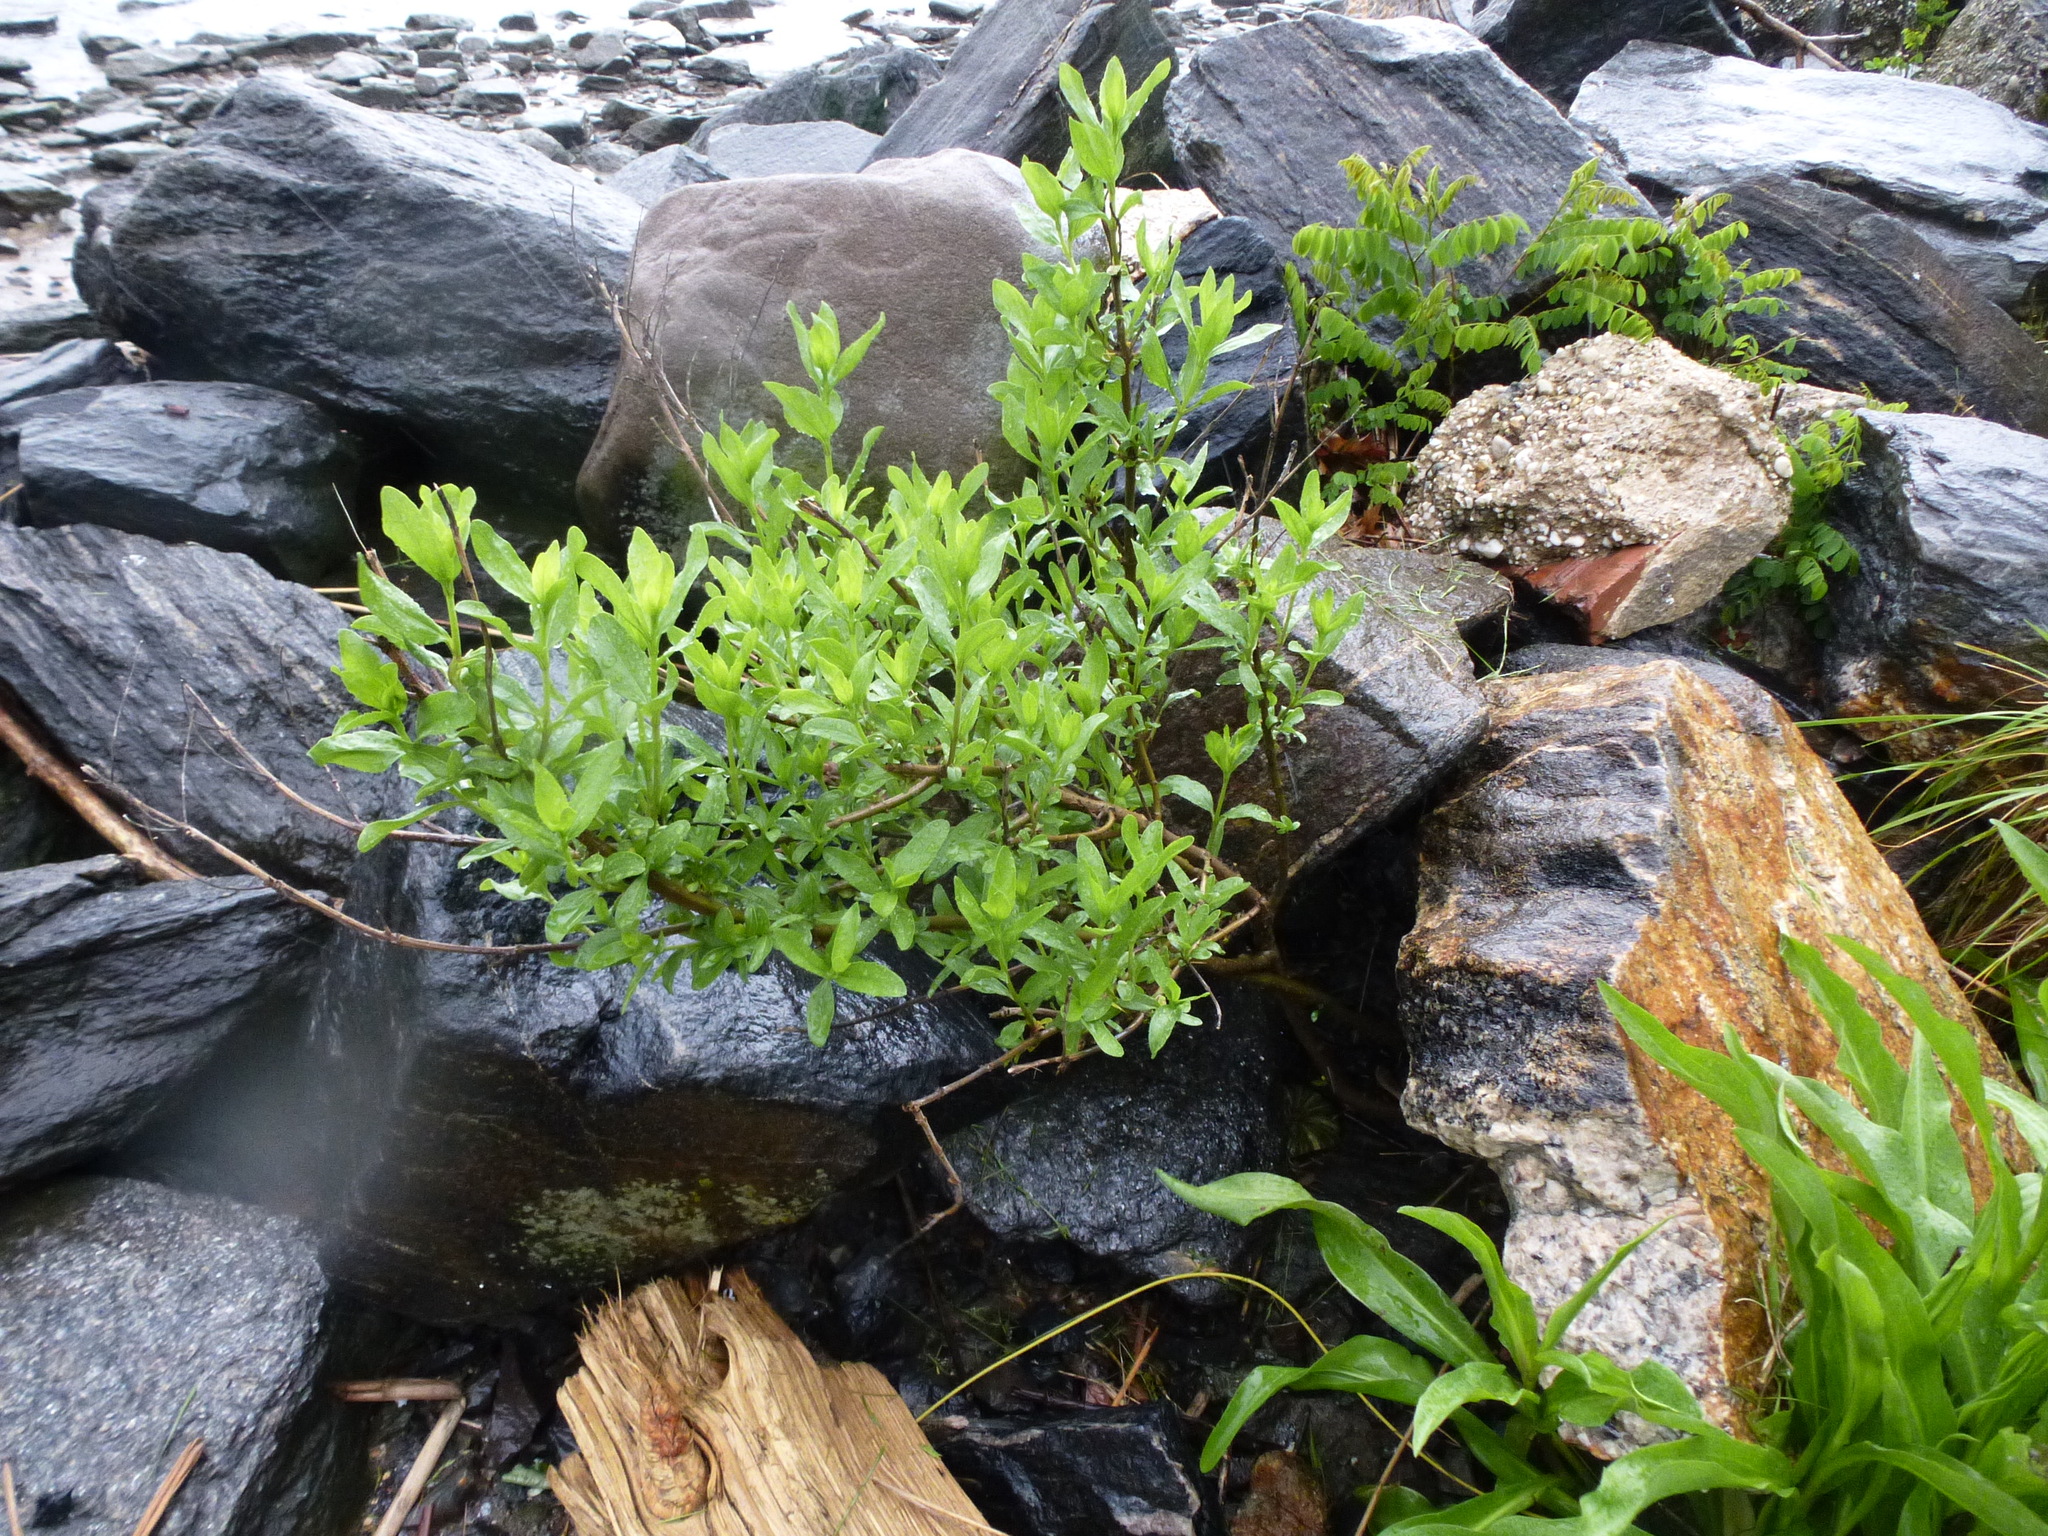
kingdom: Plantae
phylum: Tracheophyta
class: Magnoliopsida
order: Asterales
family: Asteraceae
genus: Iva
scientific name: Iva frutescens
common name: Big-leaved marsh-elder
